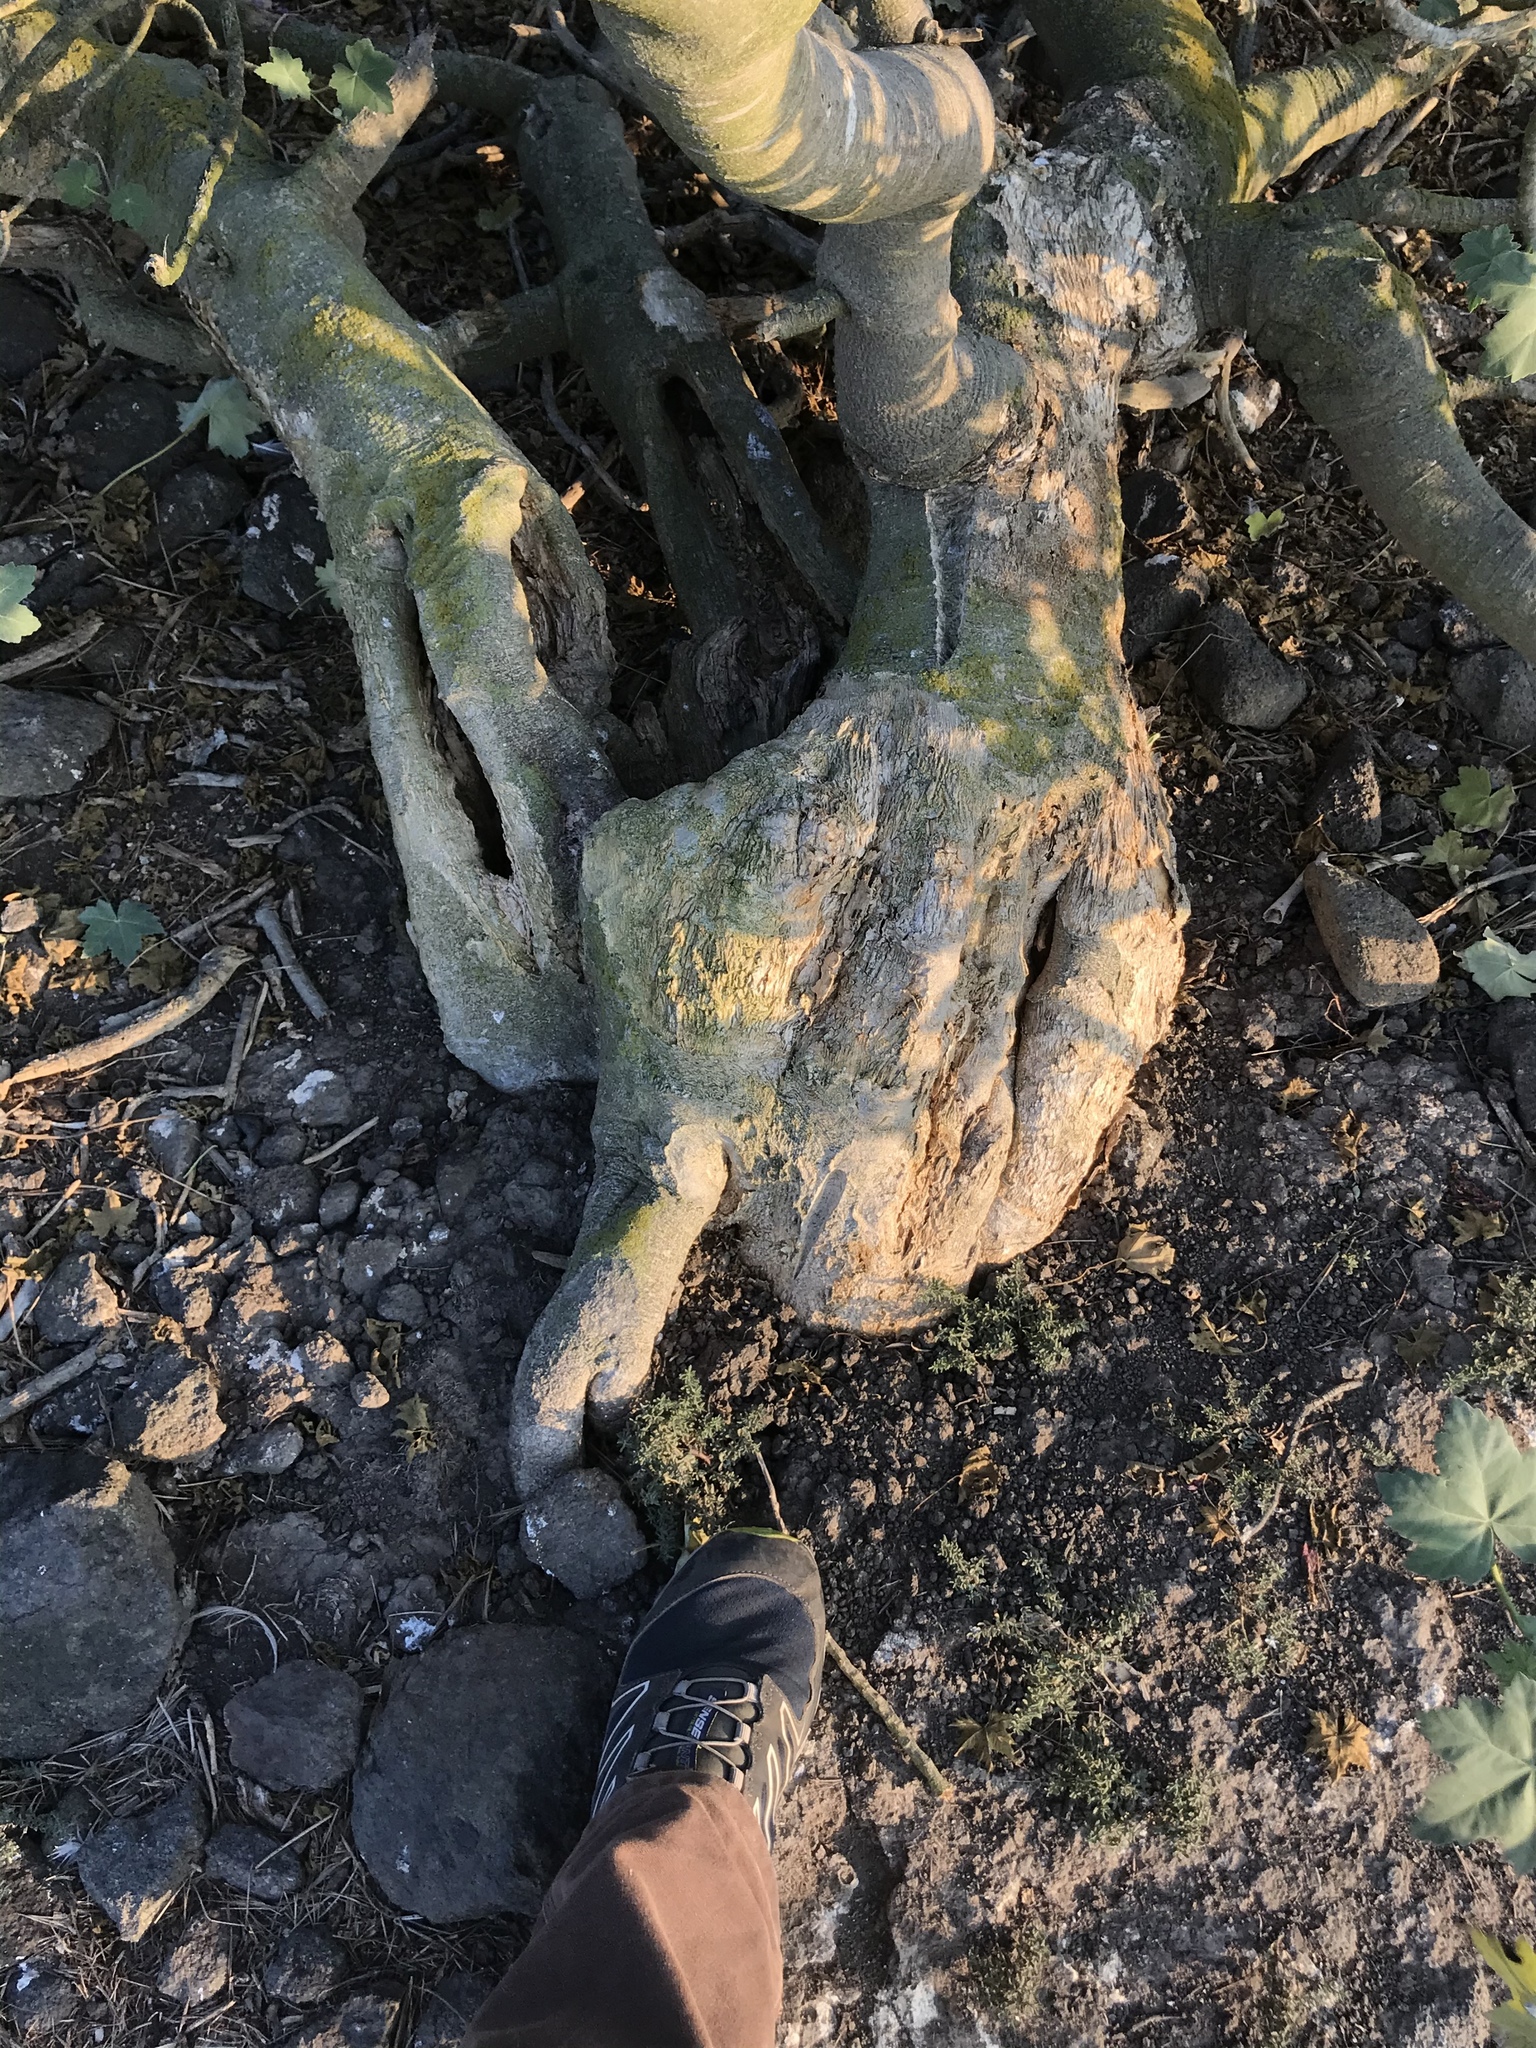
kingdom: Plantae
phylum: Tracheophyta
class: Magnoliopsida
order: Malvales
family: Malvaceae
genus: Malva
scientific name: Malva assurgentiflora
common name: Island mallow
